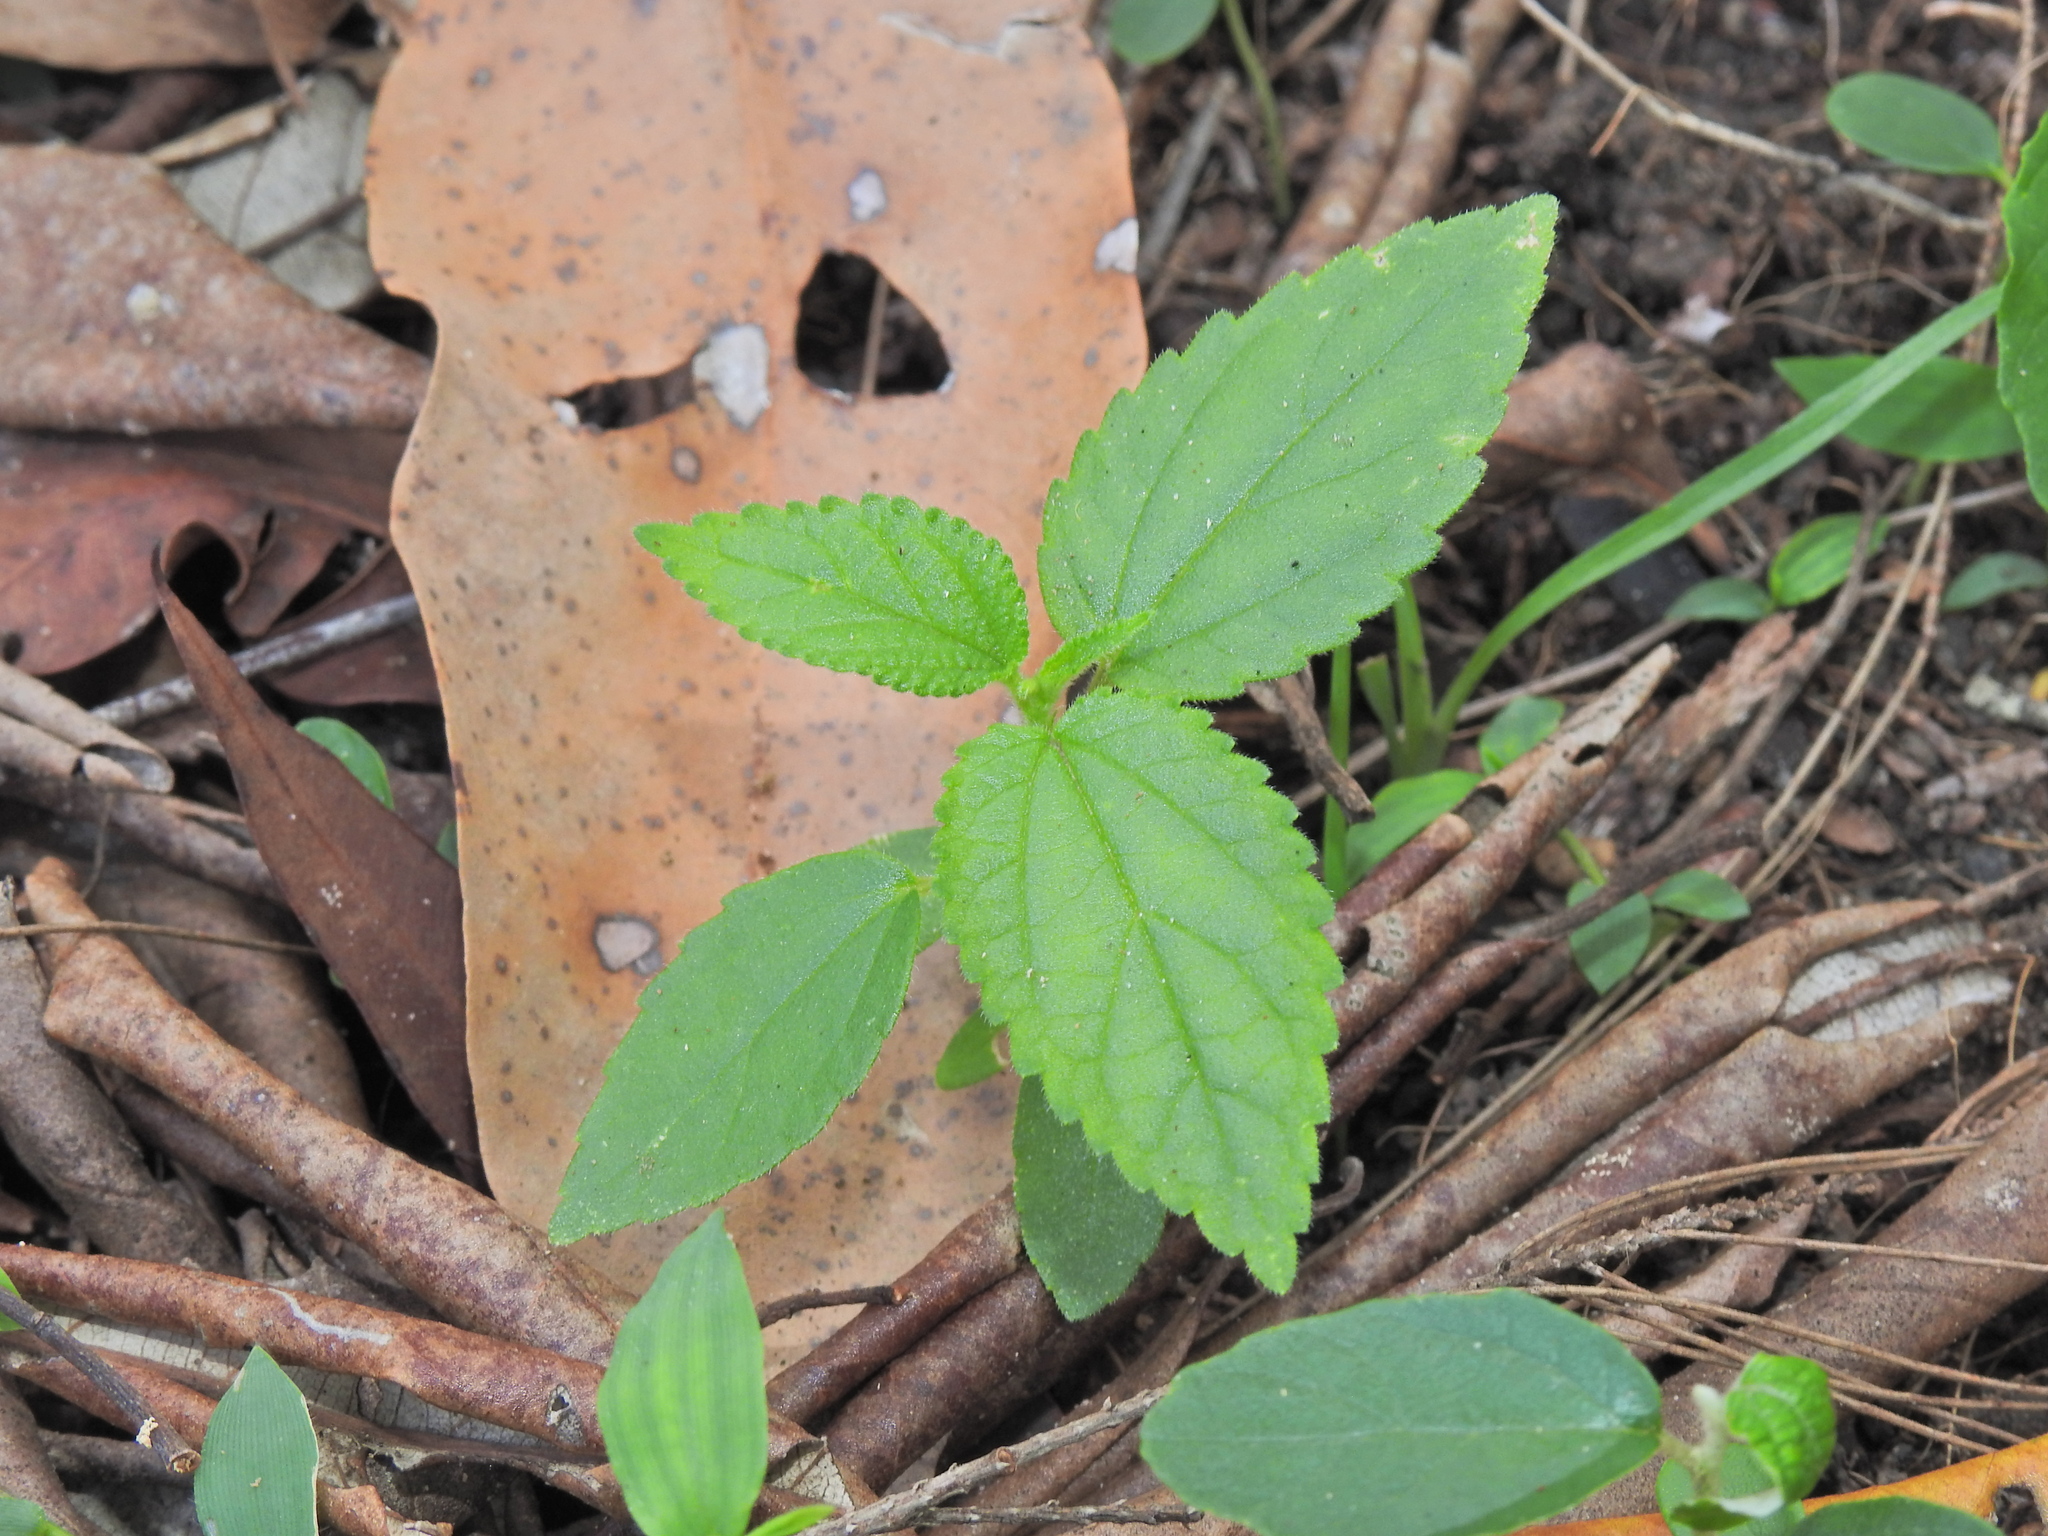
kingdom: Plantae
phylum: Tracheophyta
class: Magnoliopsida
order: Rosales
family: Cannabaceae
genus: Trema
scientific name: Trema tomentosum
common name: Peach-leaf-poisonbush
